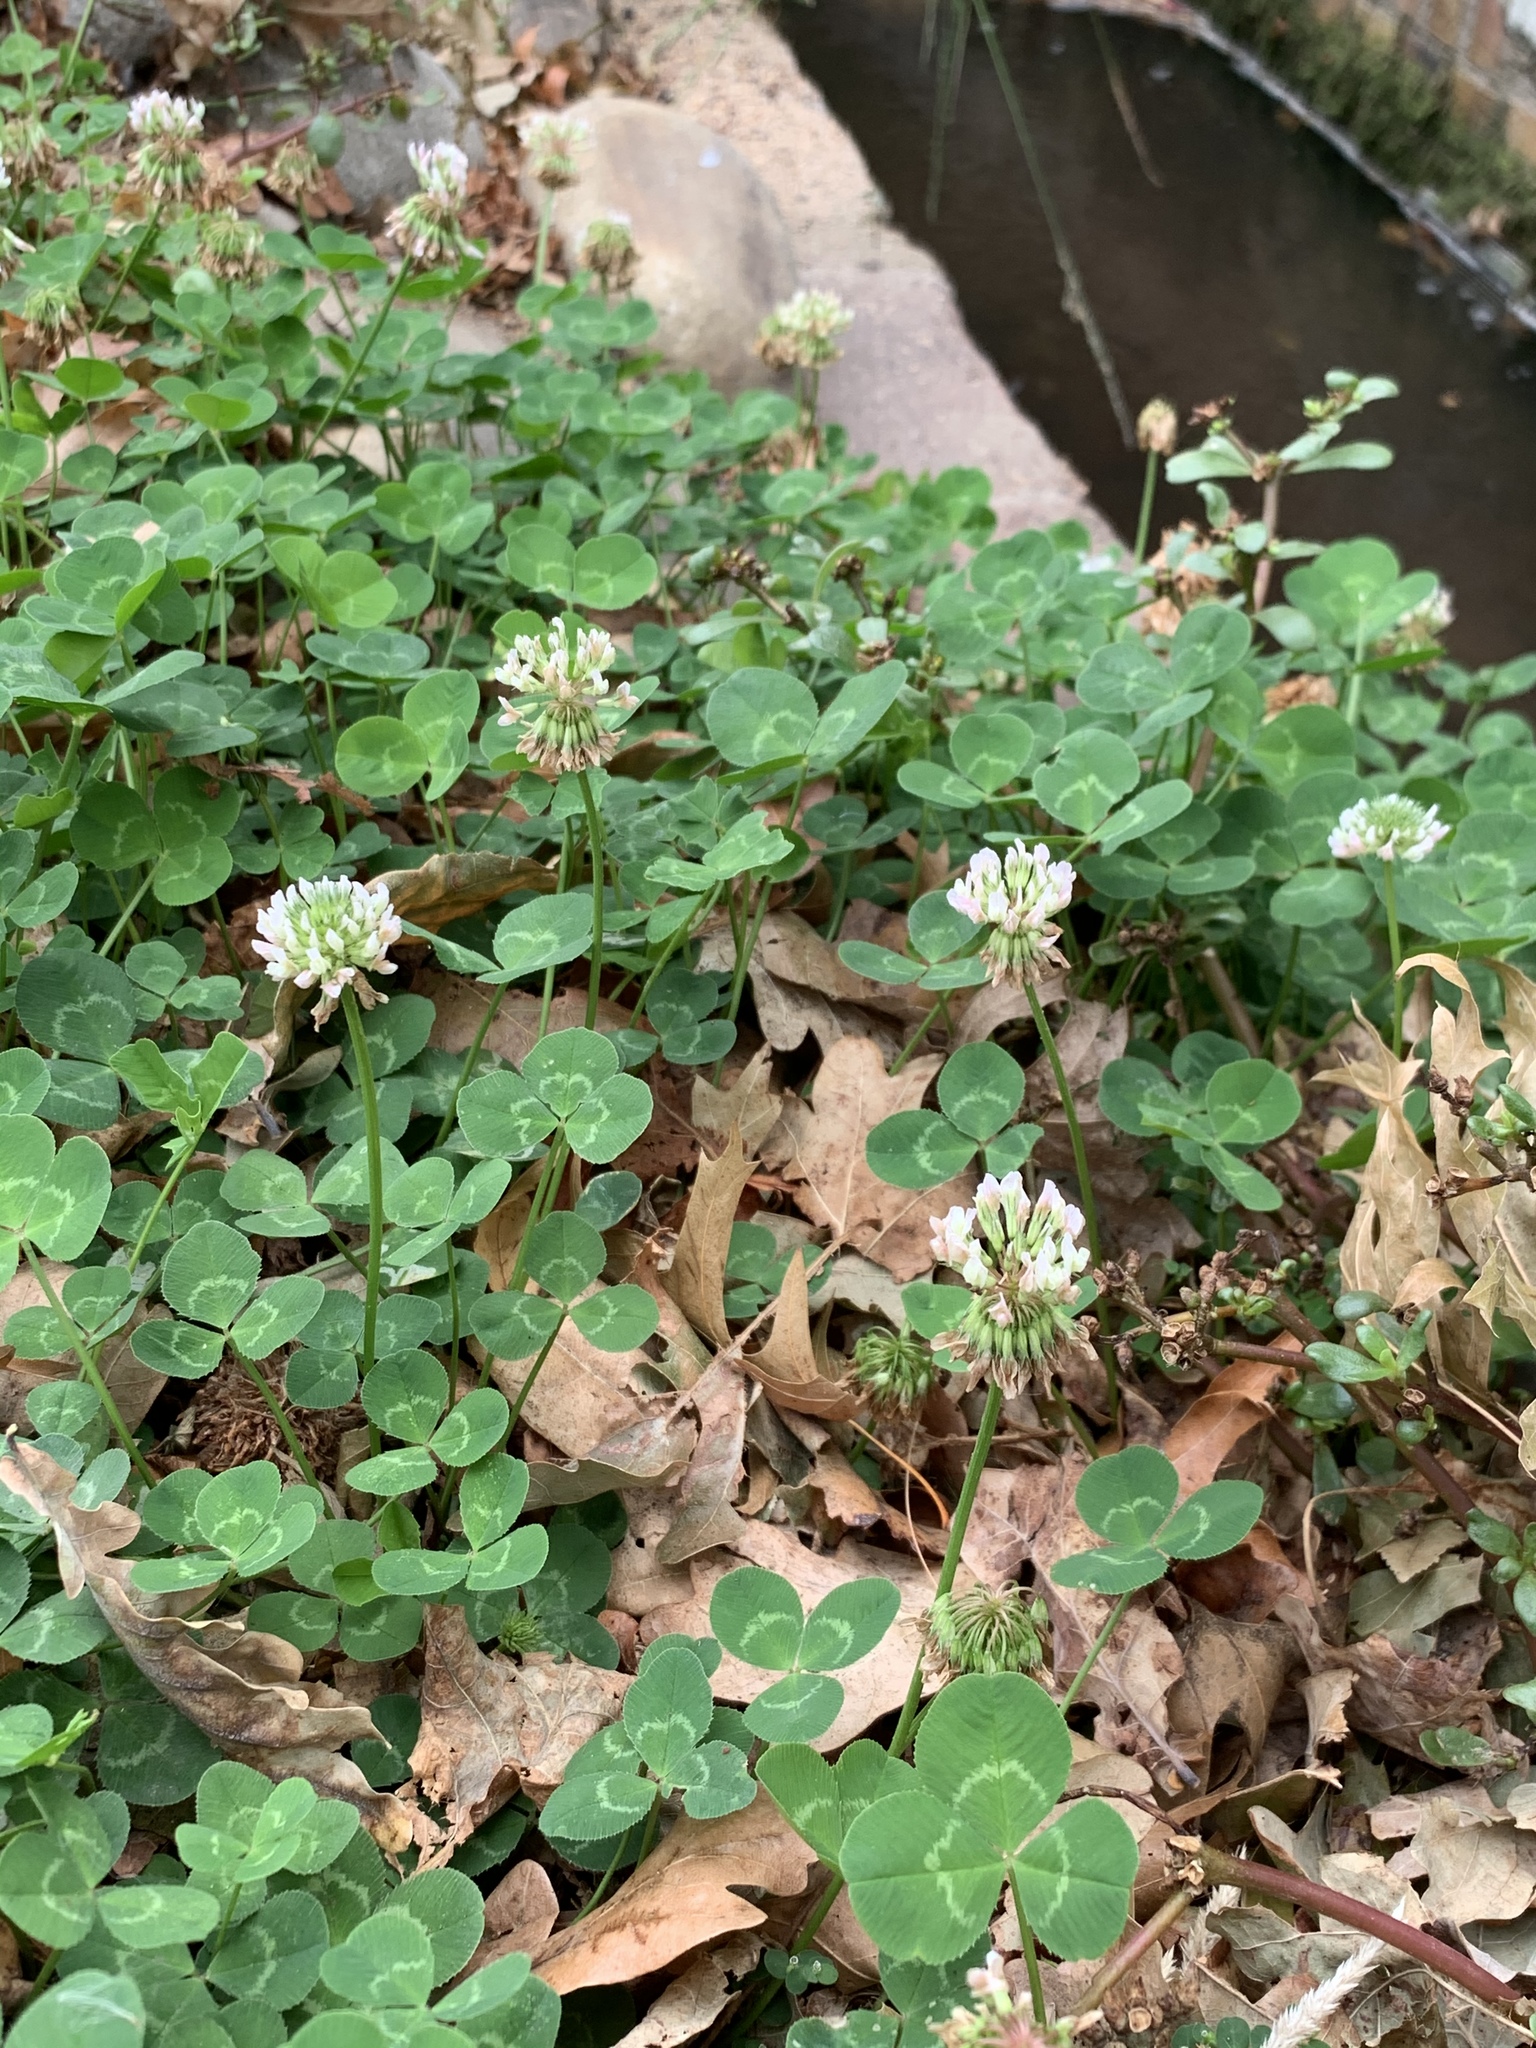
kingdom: Plantae
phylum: Tracheophyta
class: Magnoliopsida
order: Fabales
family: Fabaceae
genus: Trifolium
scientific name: Trifolium repens
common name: White clover
